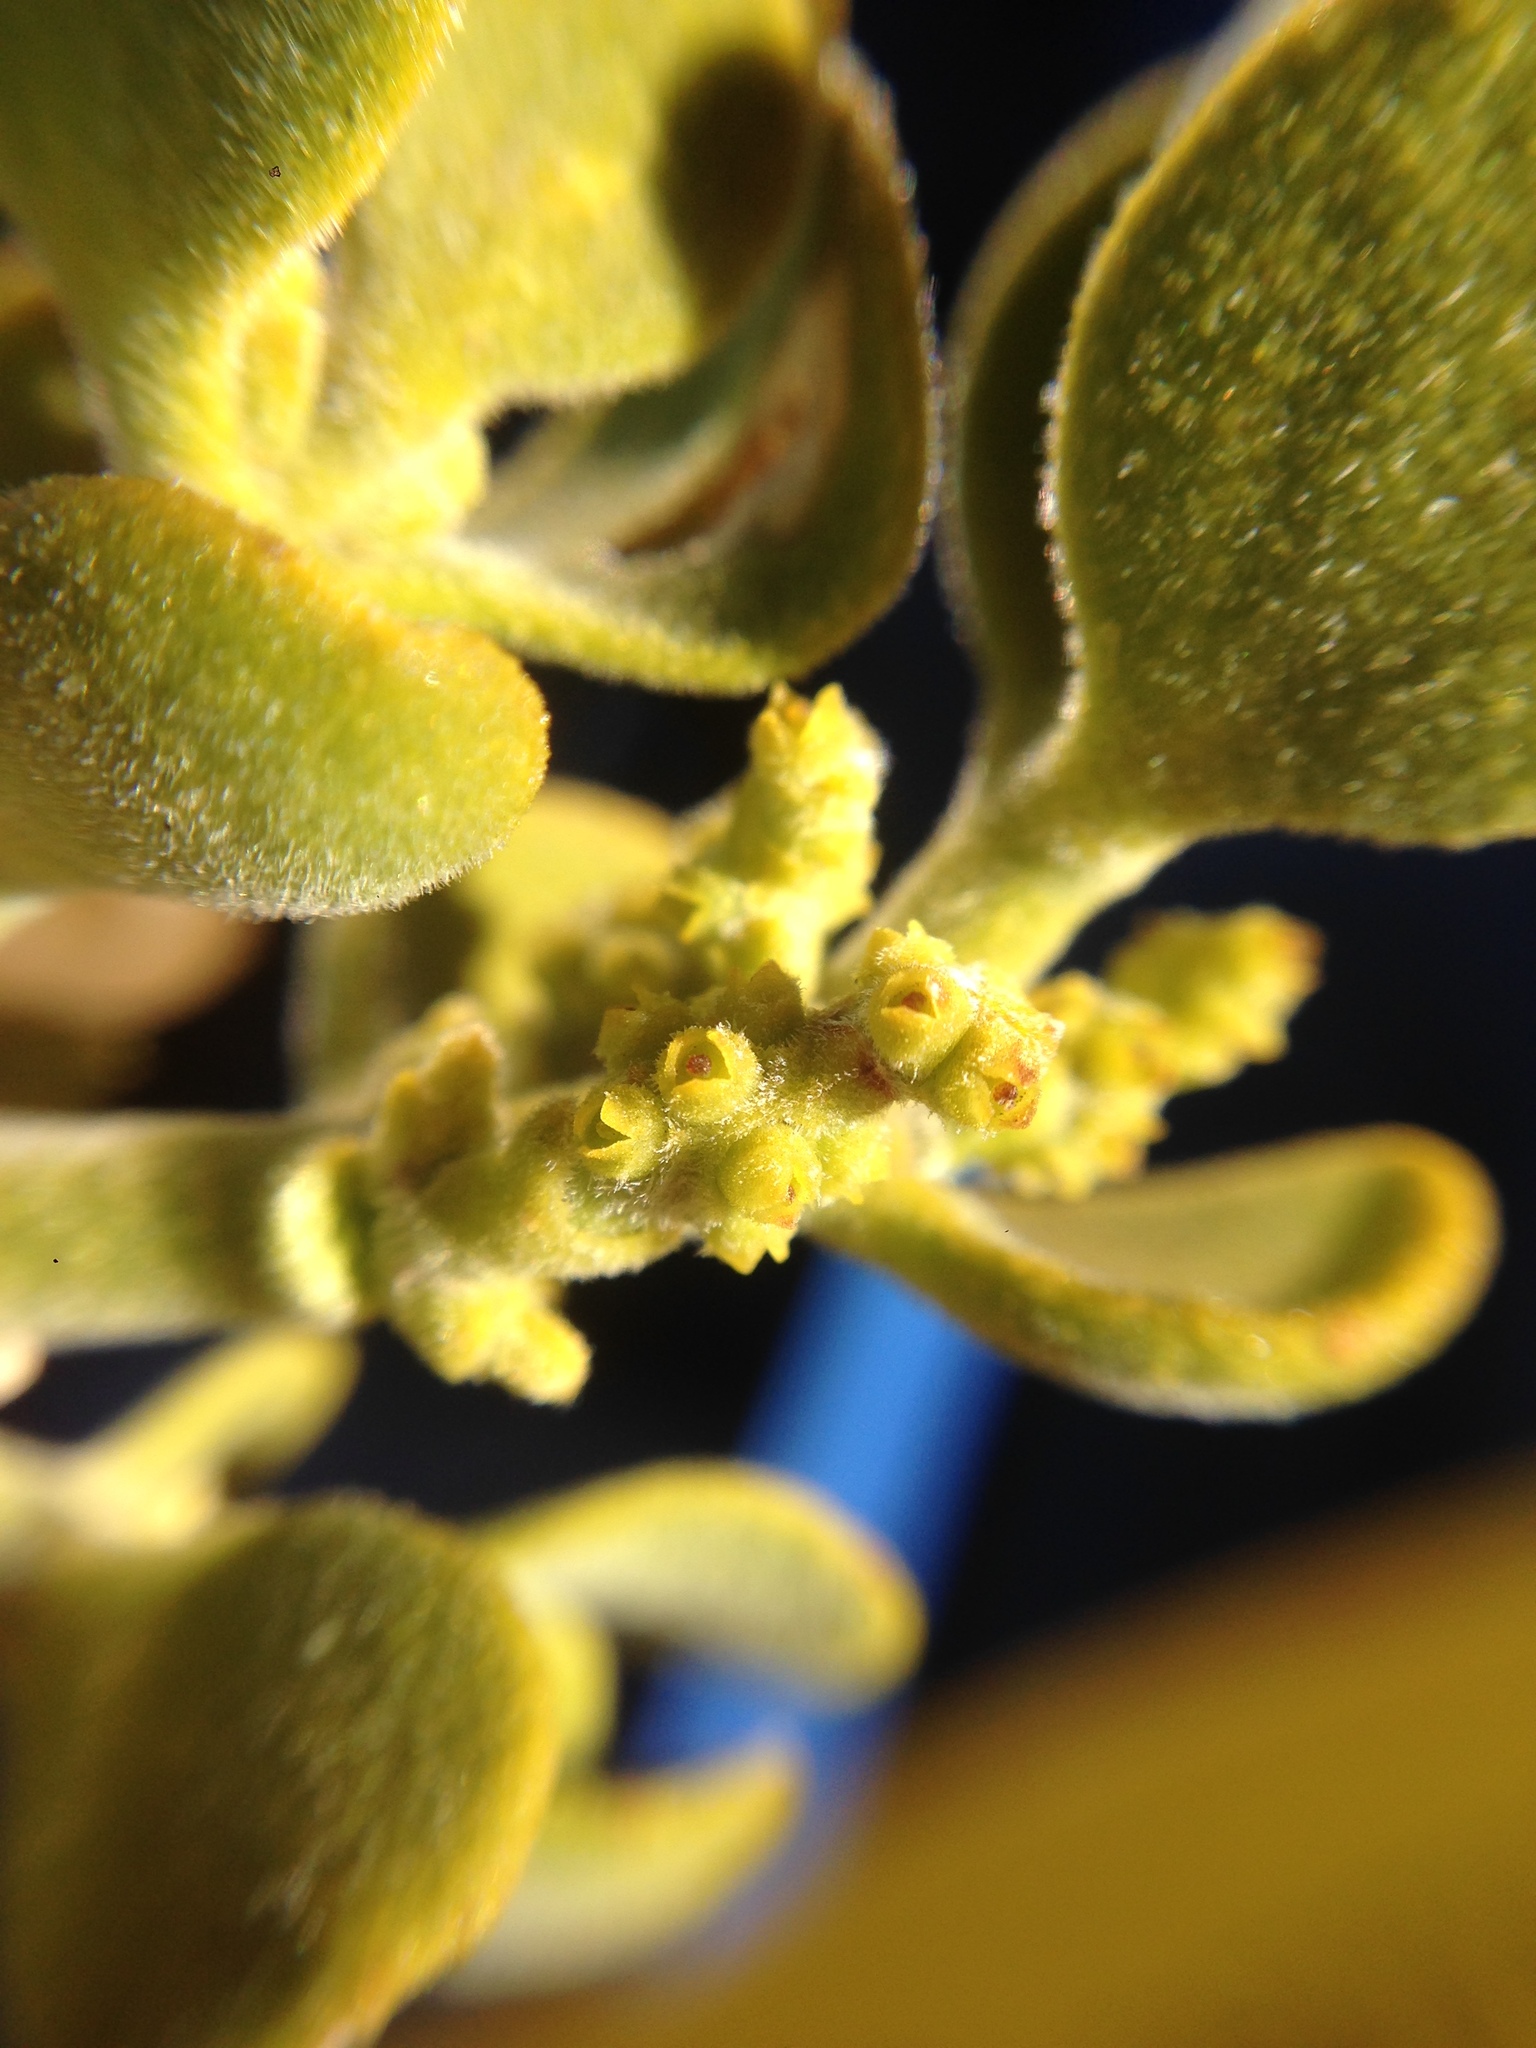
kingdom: Plantae
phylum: Tracheophyta
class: Magnoliopsida
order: Santalales
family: Viscaceae
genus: Phoradendron
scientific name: Phoradendron leucarpum
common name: Pacific mistletoe
